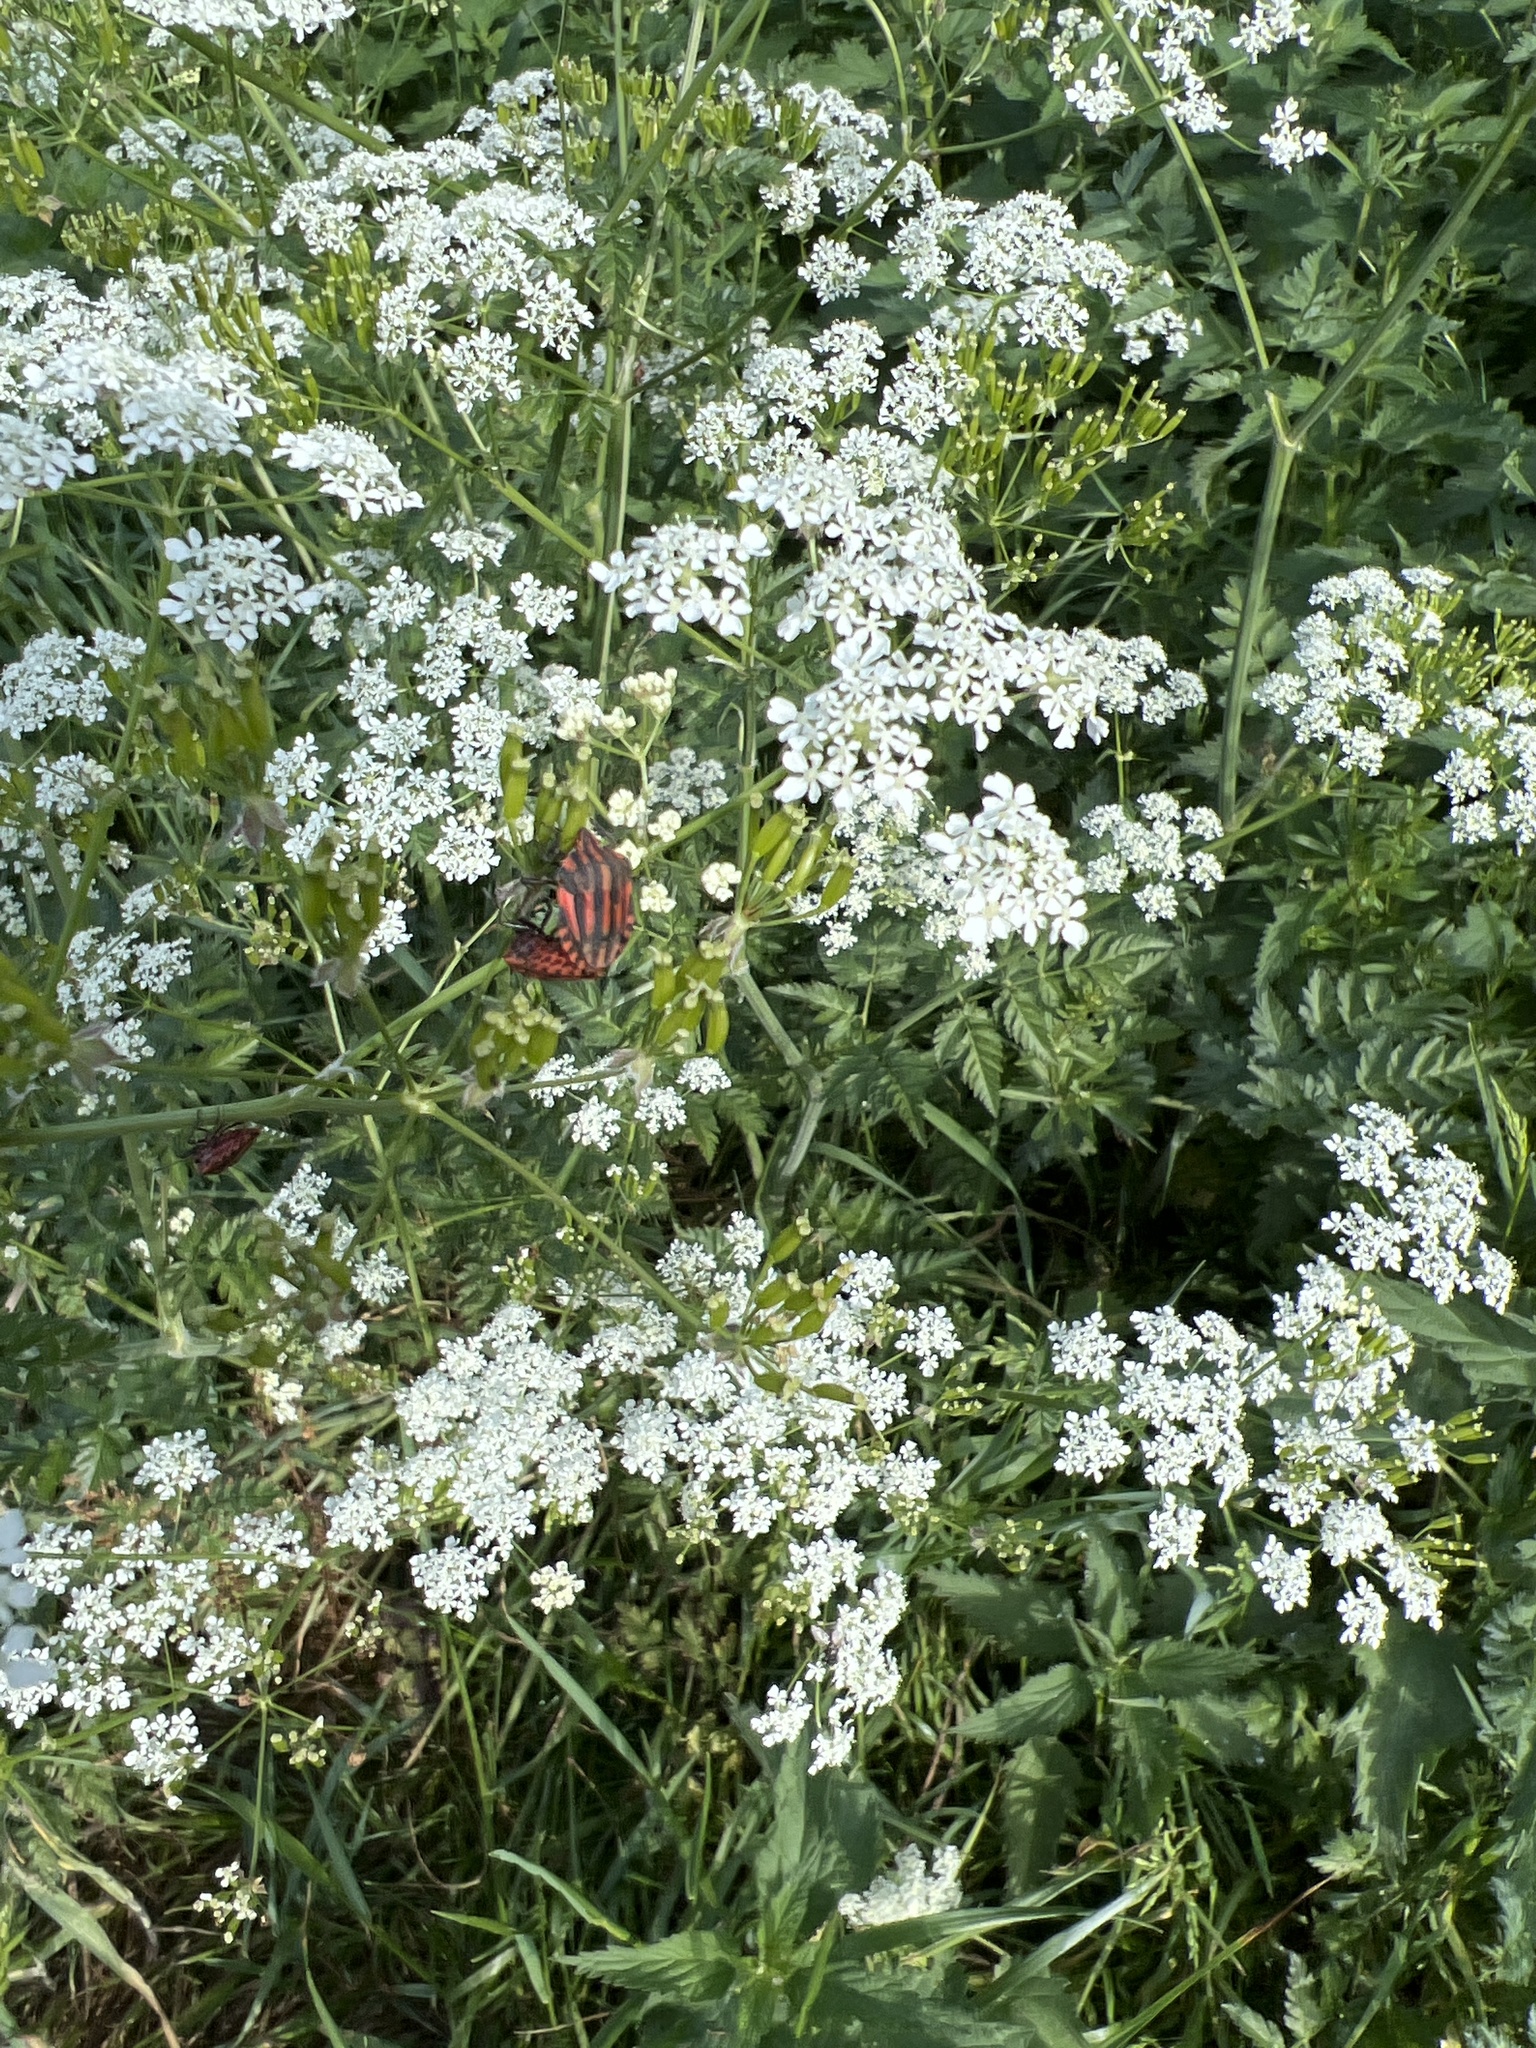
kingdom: Animalia
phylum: Arthropoda
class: Insecta
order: Hemiptera
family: Pentatomidae
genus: Graphosoma
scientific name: Graphosoma italicum
